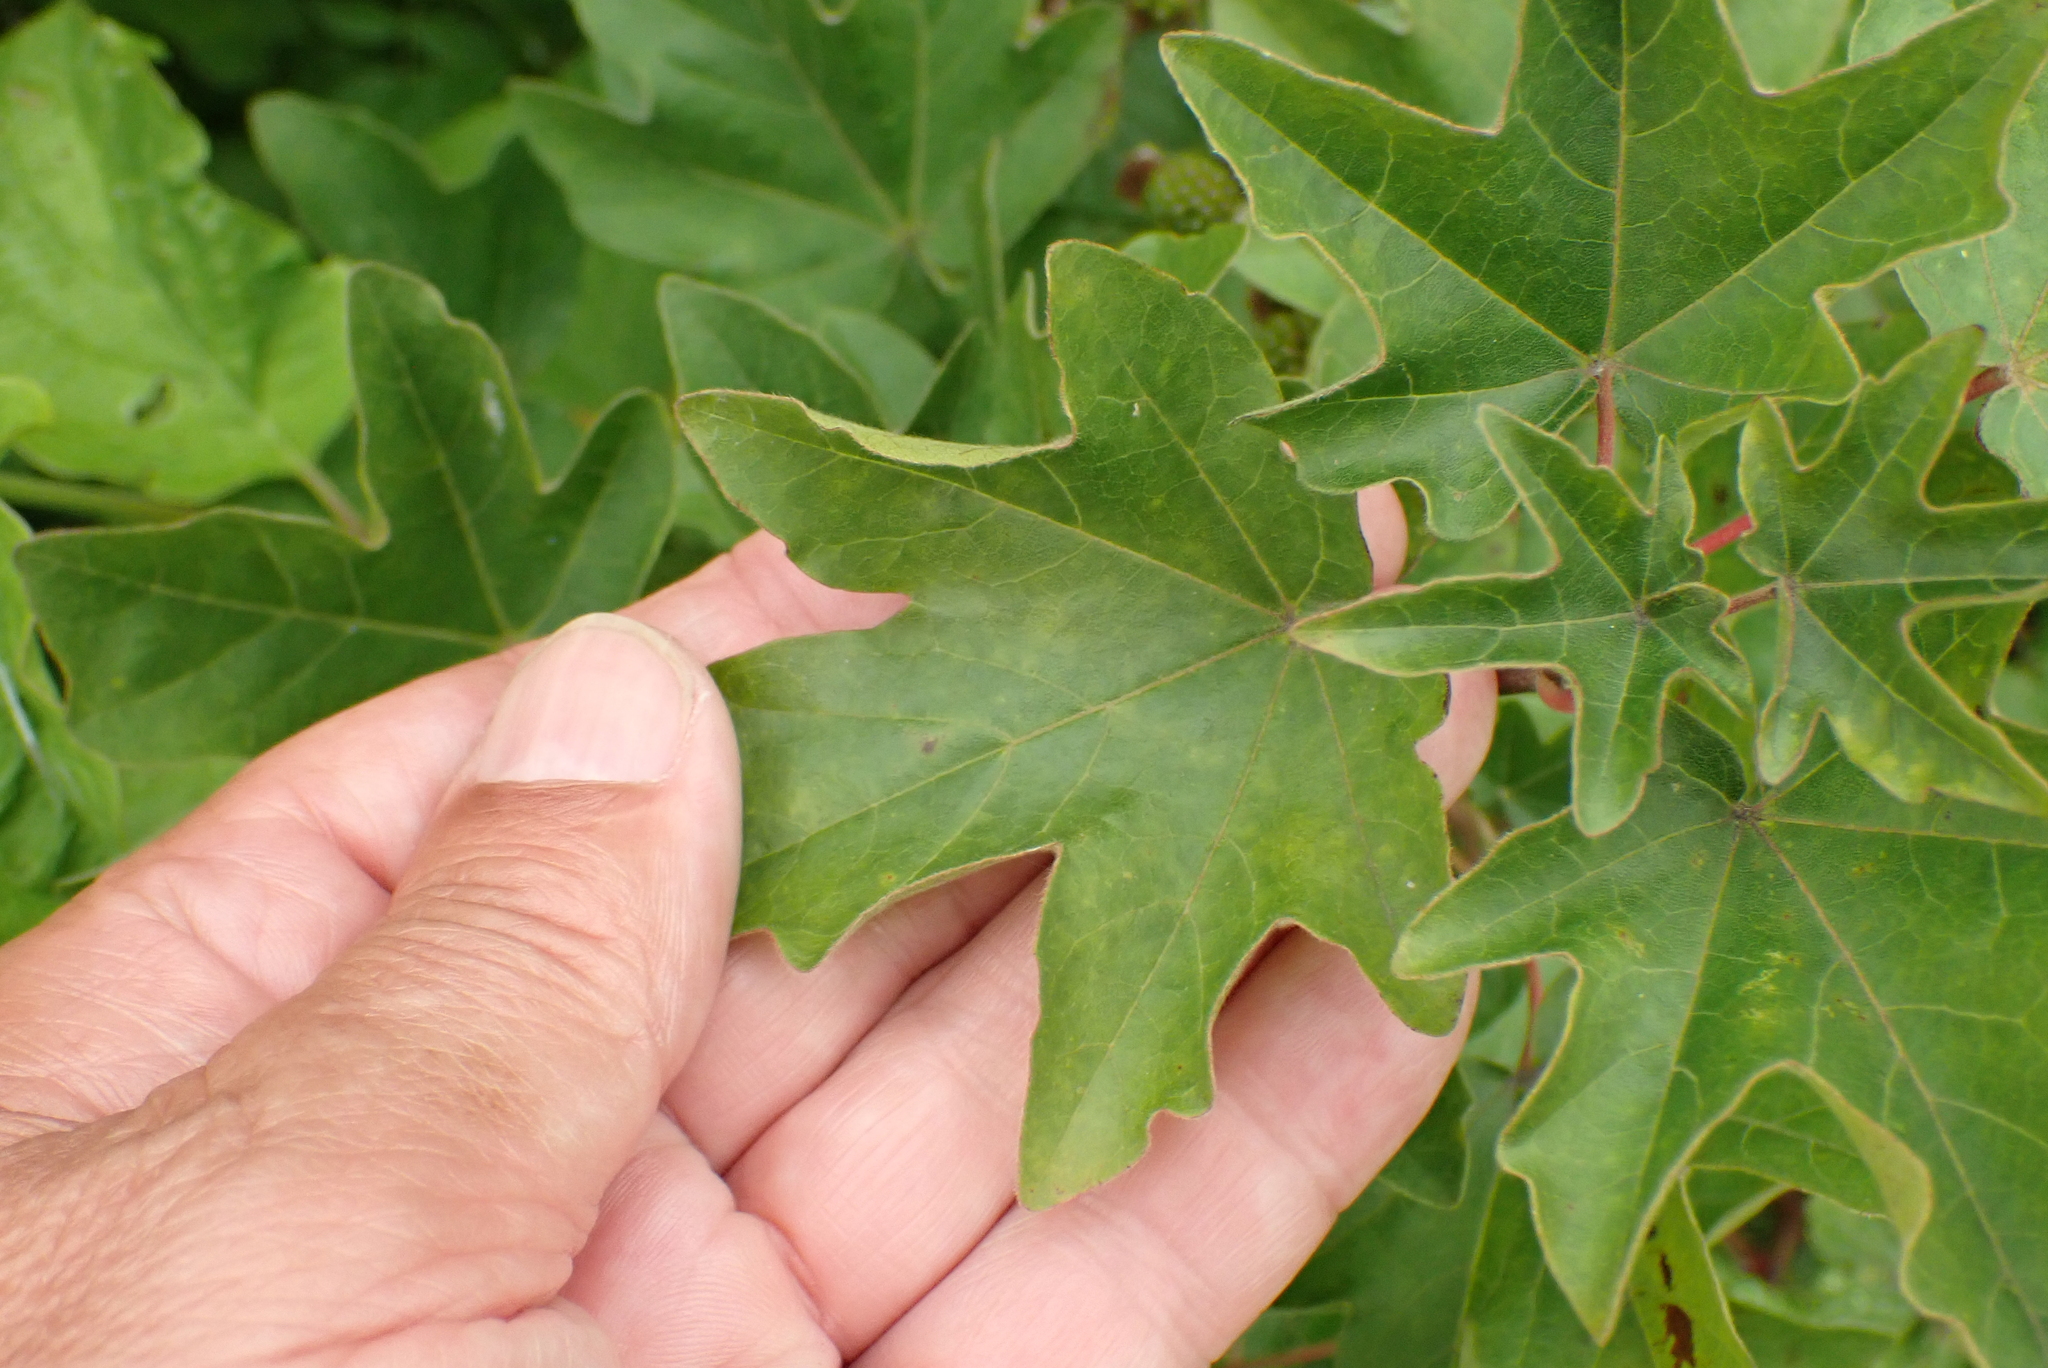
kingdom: Plantae
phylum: Tracheophyta
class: Magnoliopsida
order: Sapindales
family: Sapindaceae
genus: Acer
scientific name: Acer campestre
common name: Field maple
